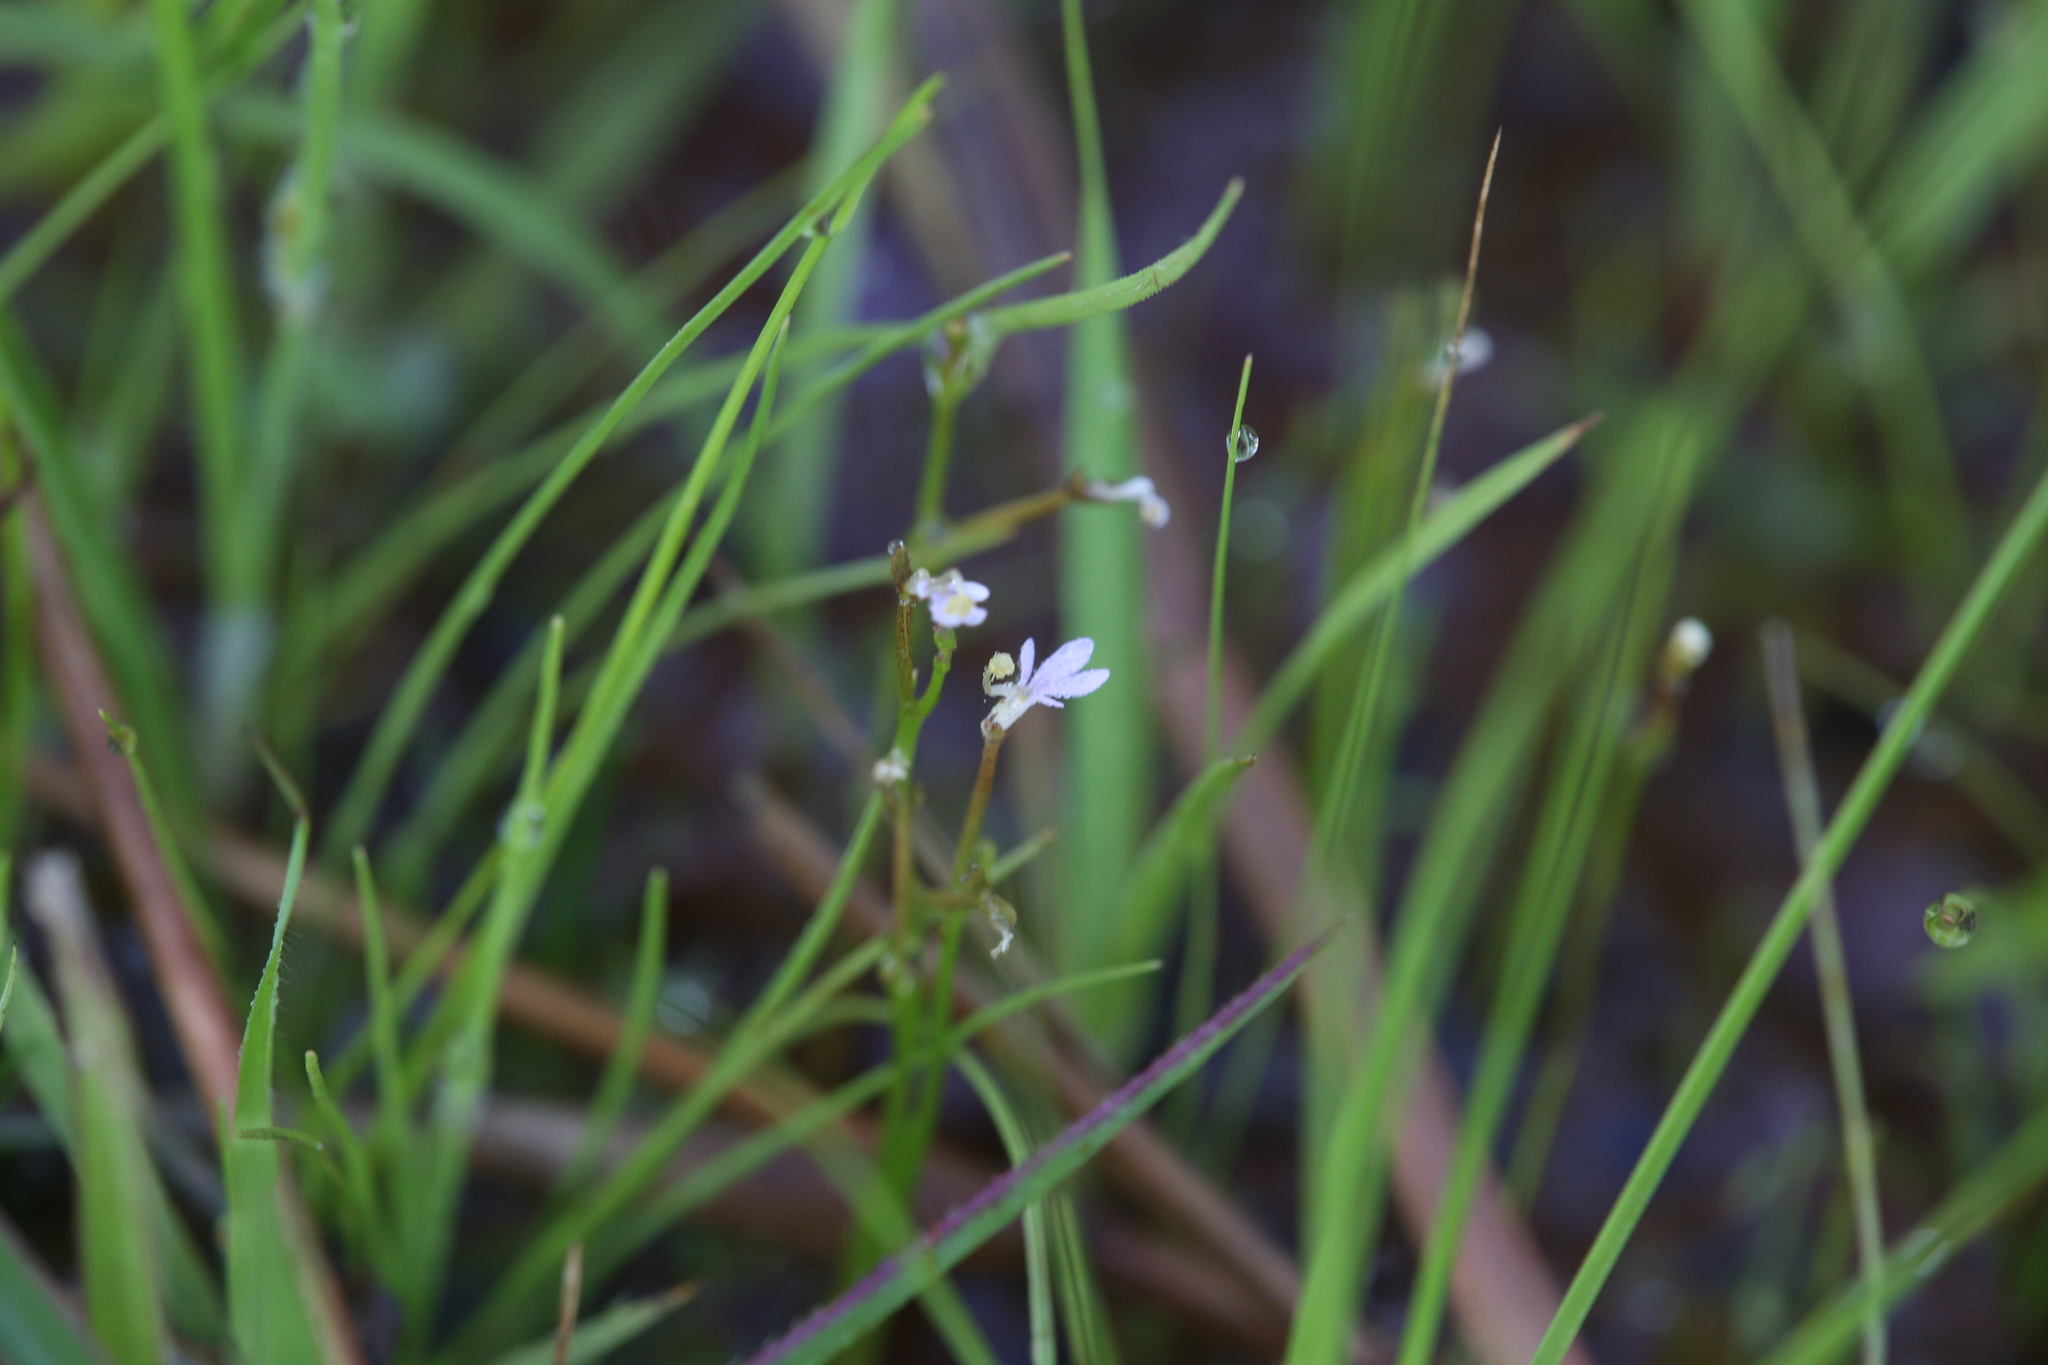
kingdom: Plantae
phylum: Tracheophyta
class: Magnoliopsida
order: Asterales
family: Stylidiaceae
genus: Stylidium
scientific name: Stylidium elachophyllum
